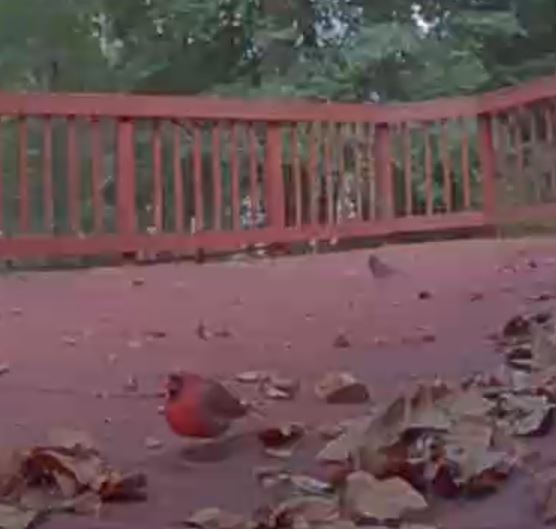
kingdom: Animalia
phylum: Chordata
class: Aves
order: Passeriformes
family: Cardinalidae
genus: Cardinalis
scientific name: Cardinalis cardinalis
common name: Northern cardinal
